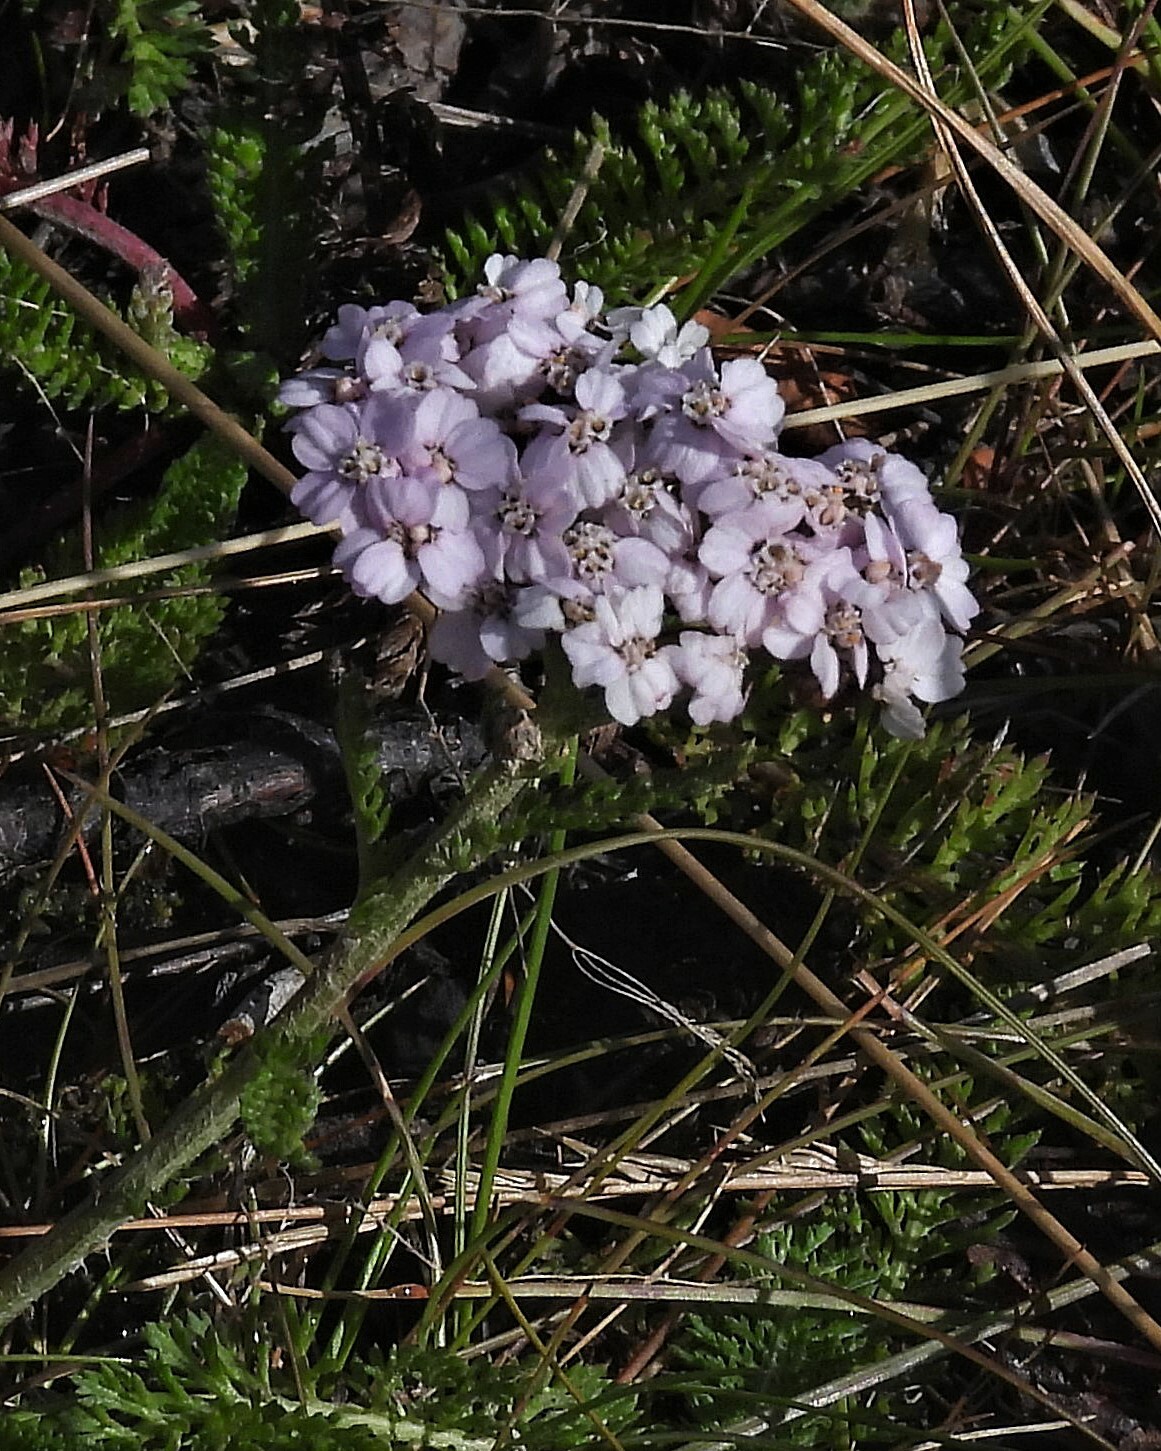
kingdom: Plantae
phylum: Tracheophyta
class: Magnoliopsida
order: Asterales
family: Asteraceae
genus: Achillea
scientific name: Achillea millefolium
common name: Yarrow
